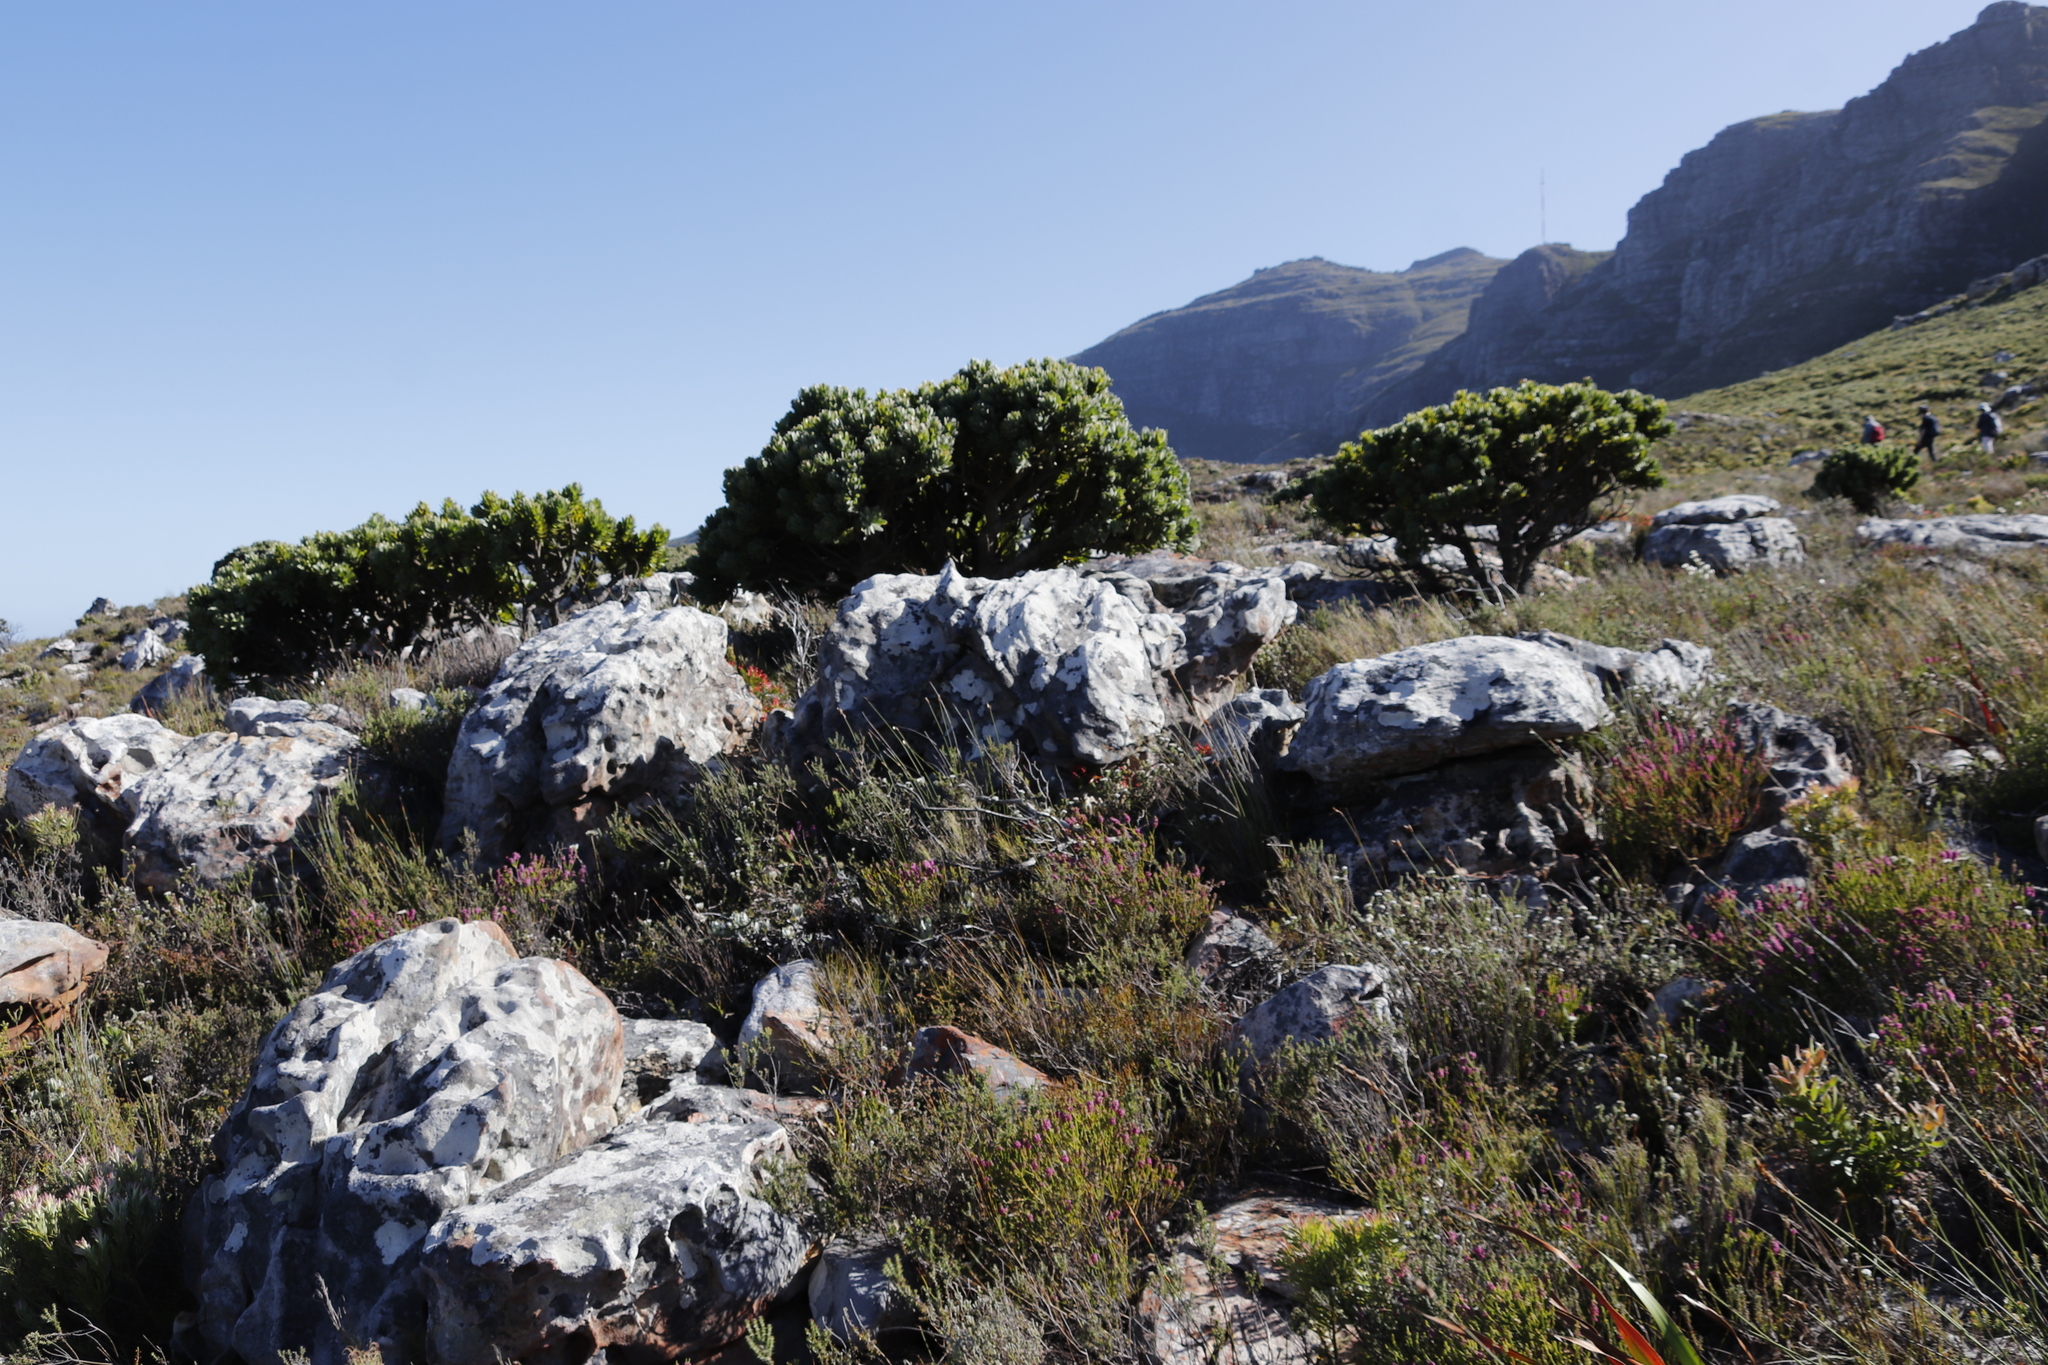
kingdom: Plantae
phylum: Tracheophyta
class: Magnoliopsida
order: Proteales
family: Proteaceae
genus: Mimetes
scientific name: Mimetes fimbriifolius
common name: Fringed bottlebrush
